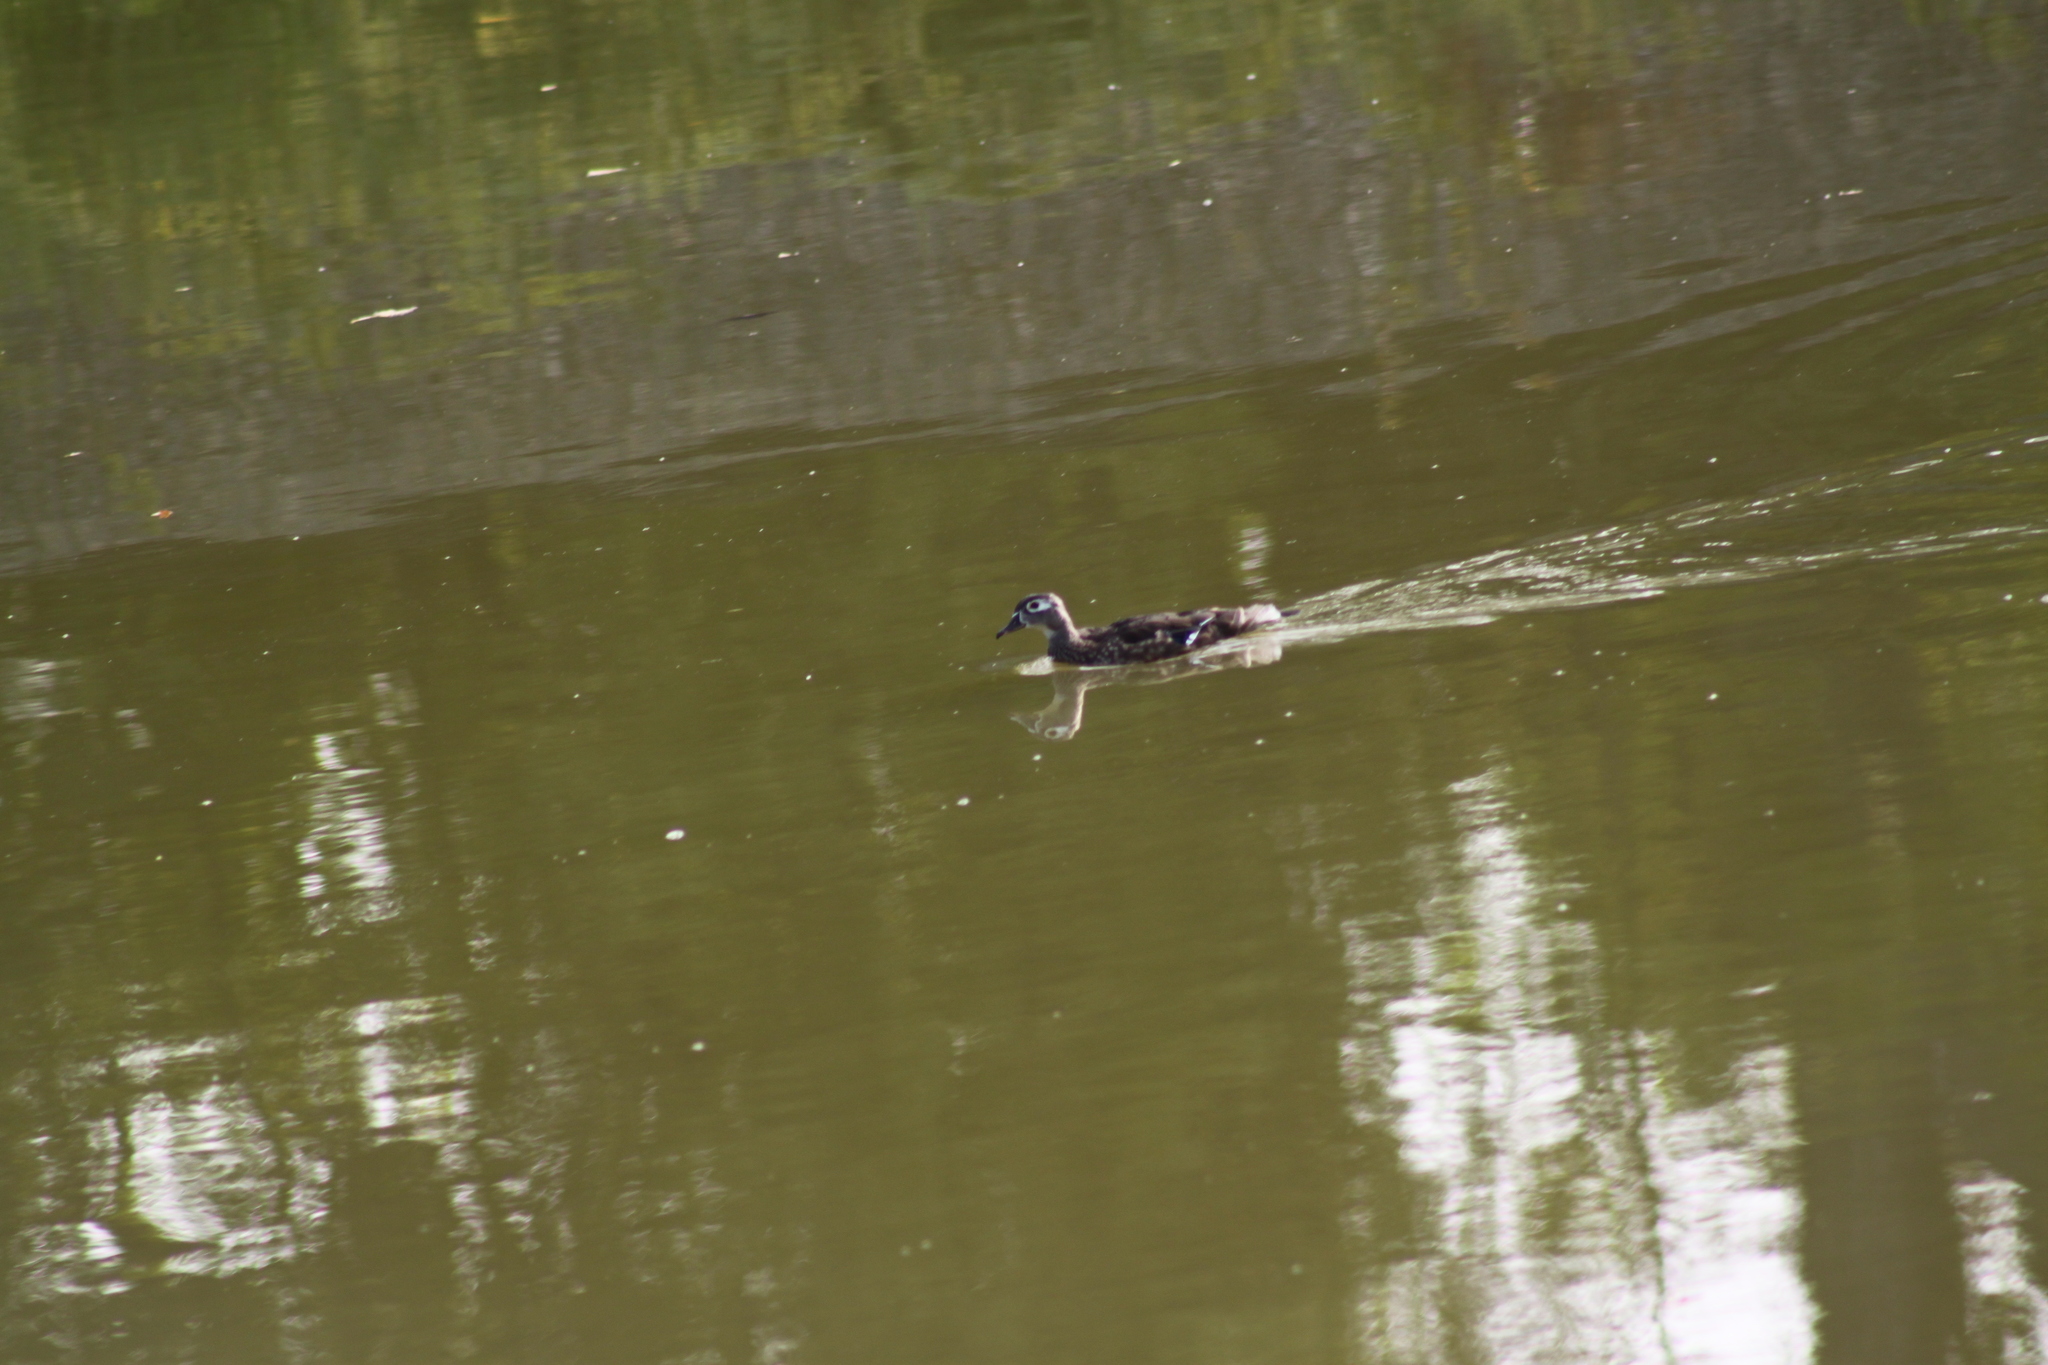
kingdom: Animalia
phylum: Chordata
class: Aves
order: Anseriformes
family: Anatidae
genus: Aix
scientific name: Aix sponsa
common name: Wood duck
